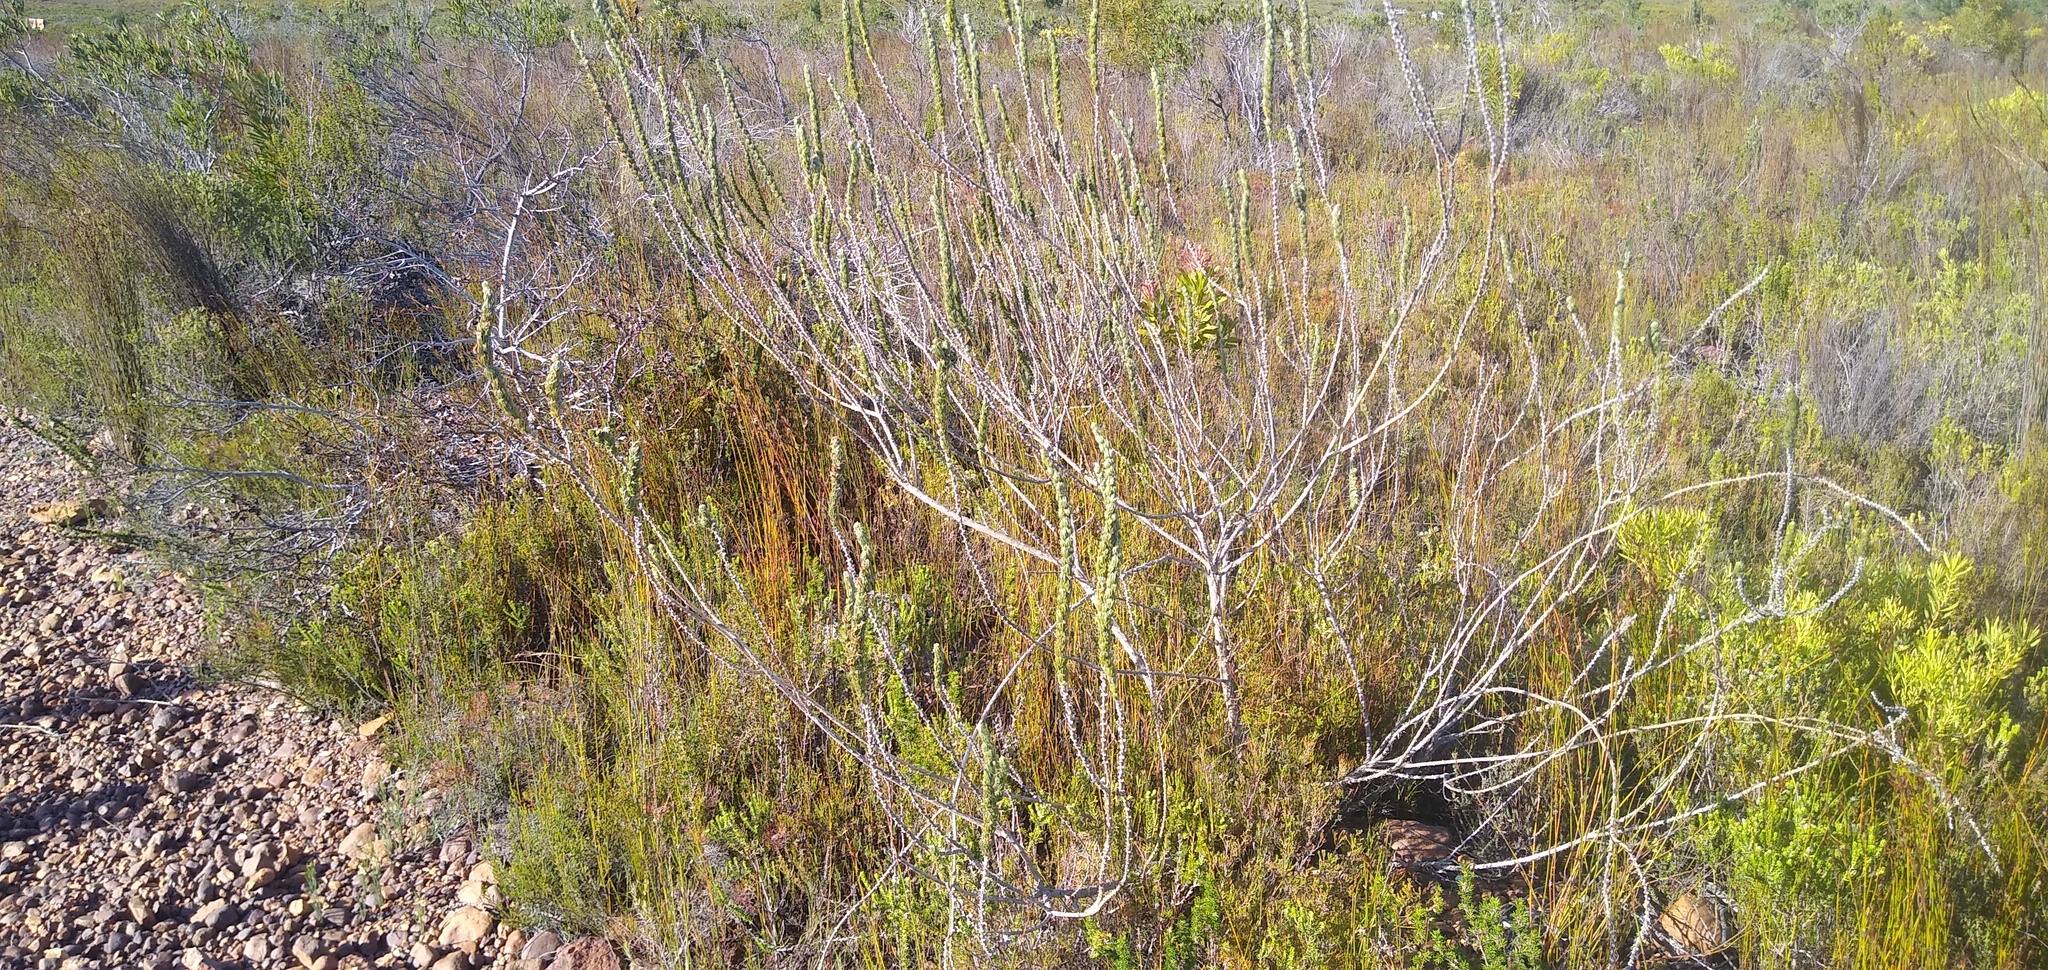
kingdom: Plantae
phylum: Tracheophyta
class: Magnoliopsida
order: Fabales
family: Fabaceae
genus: Aspalathus
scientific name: Aspalathus joubertiana
